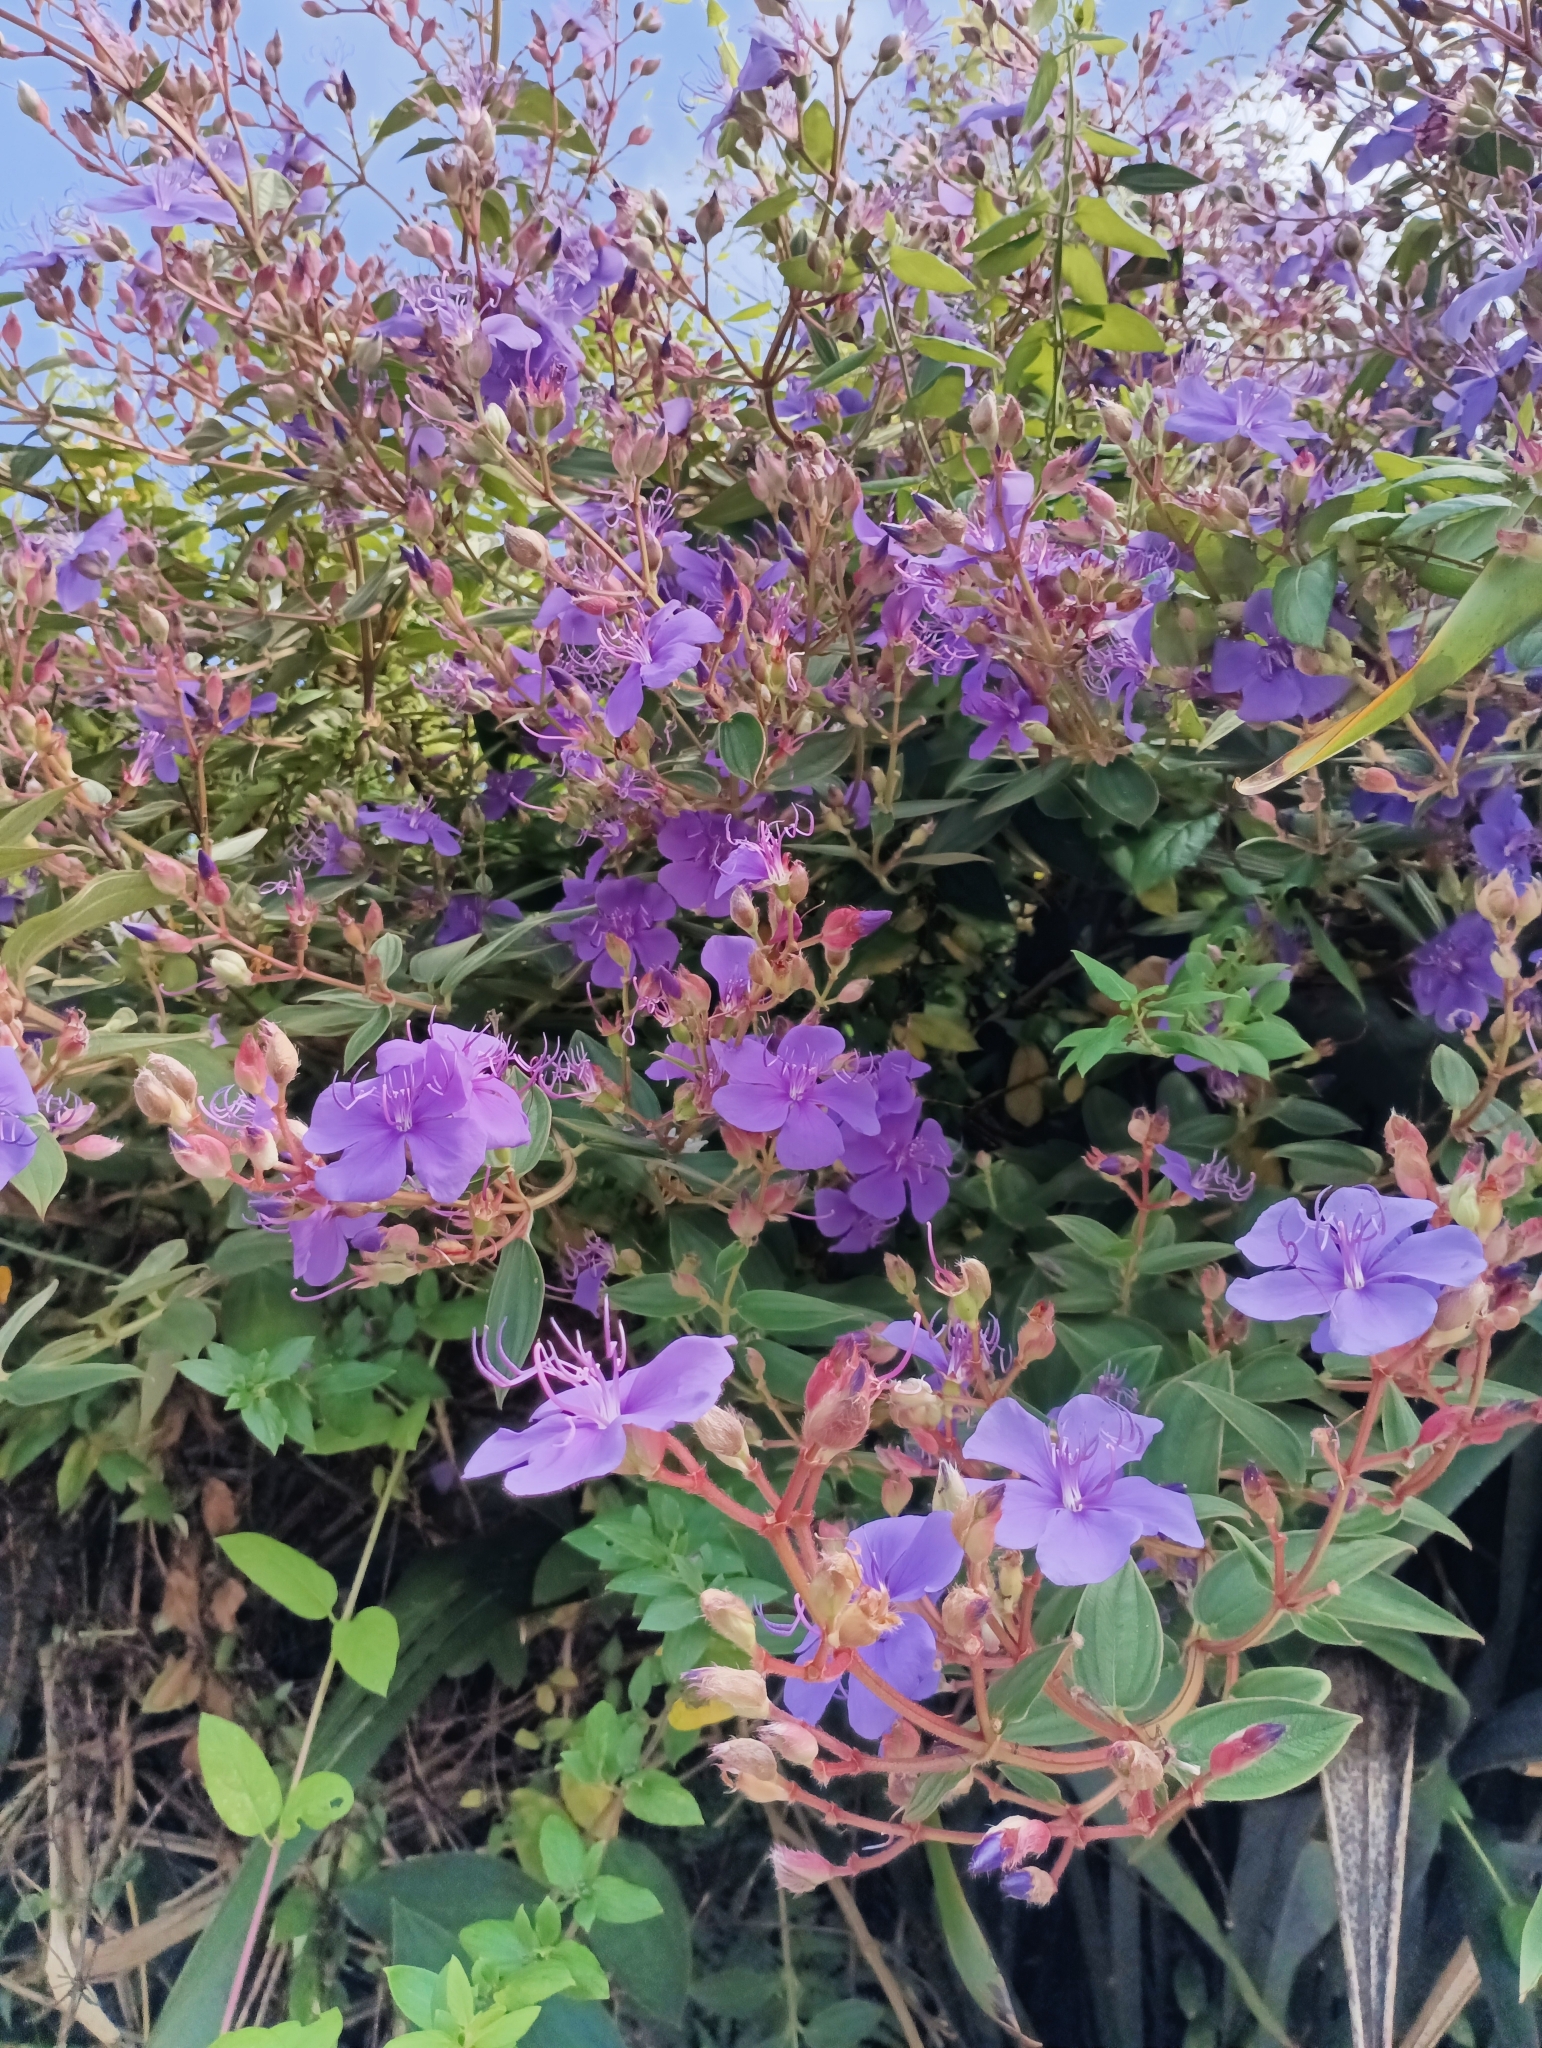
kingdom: Plantae
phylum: Tracheophyta
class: Magnoliopsida
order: Myrtales
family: Melastomataceae
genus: Pleroma
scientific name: Pleroma urvilleanum
